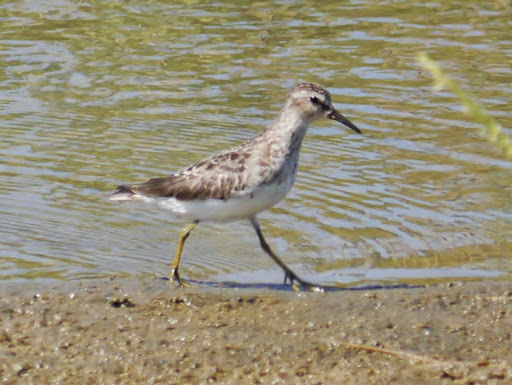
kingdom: Animalia
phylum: Chordata
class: Aves
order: Charadriiformes
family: Scolopacidae
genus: Calidris
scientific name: Calidris minutilla
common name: Least sandpiper
